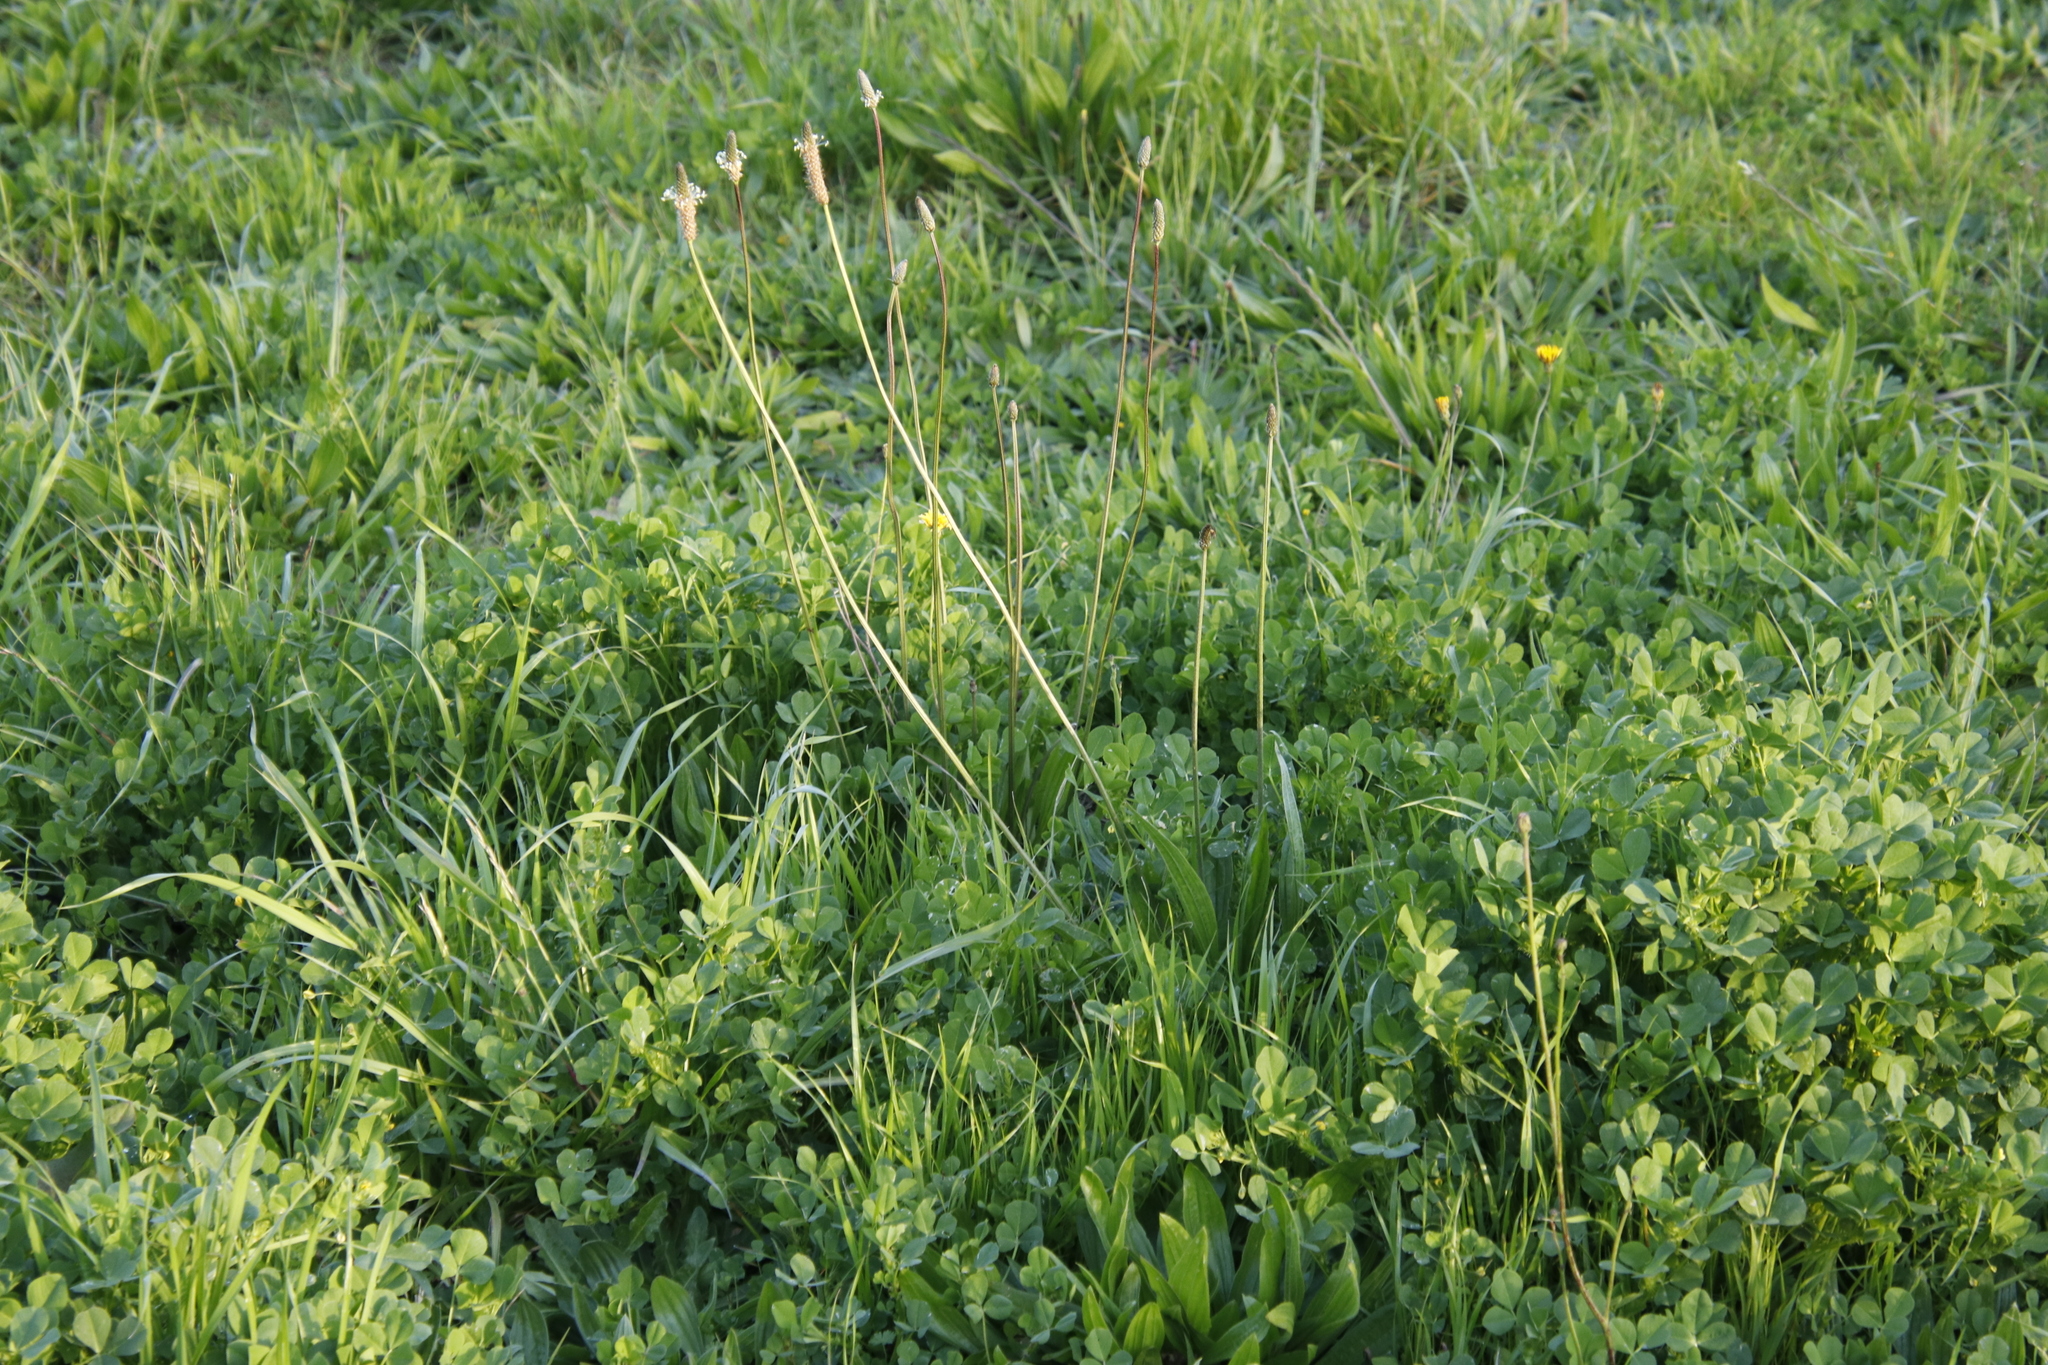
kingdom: Plantae
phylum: Tracheophyta
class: Magnoliopsida
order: Lamiales
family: Plantaginaceae
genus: Plantago
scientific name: Plantago lanceolata
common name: Ribwort plantain
